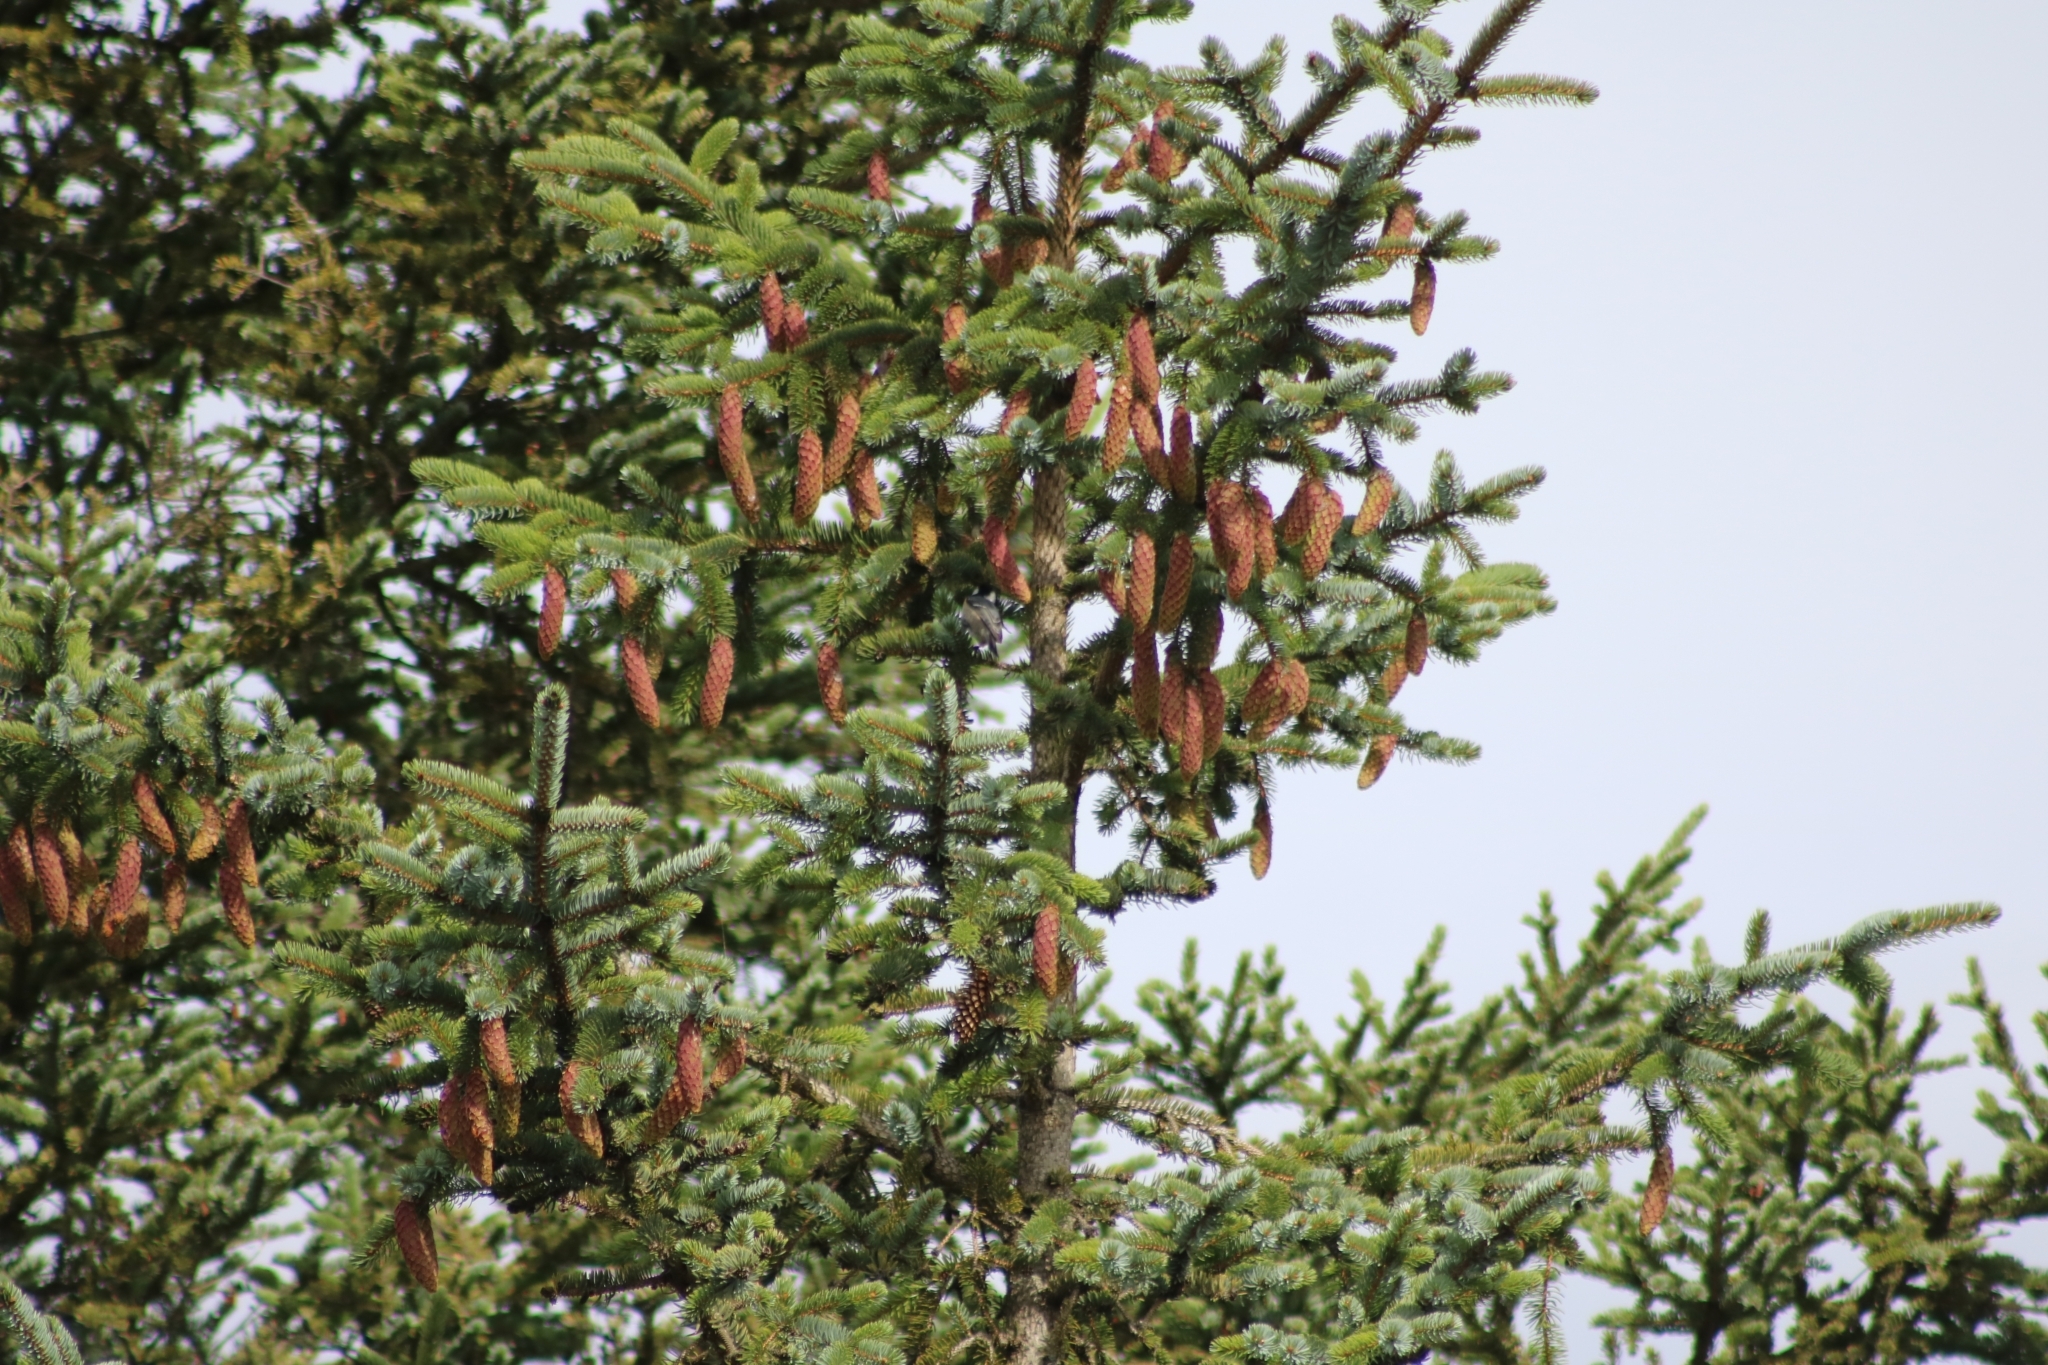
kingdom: Animalia
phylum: Chordata
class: Aves
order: Passeriformes
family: Paridae
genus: Periparus
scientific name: Periparus ater
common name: Coal tit
